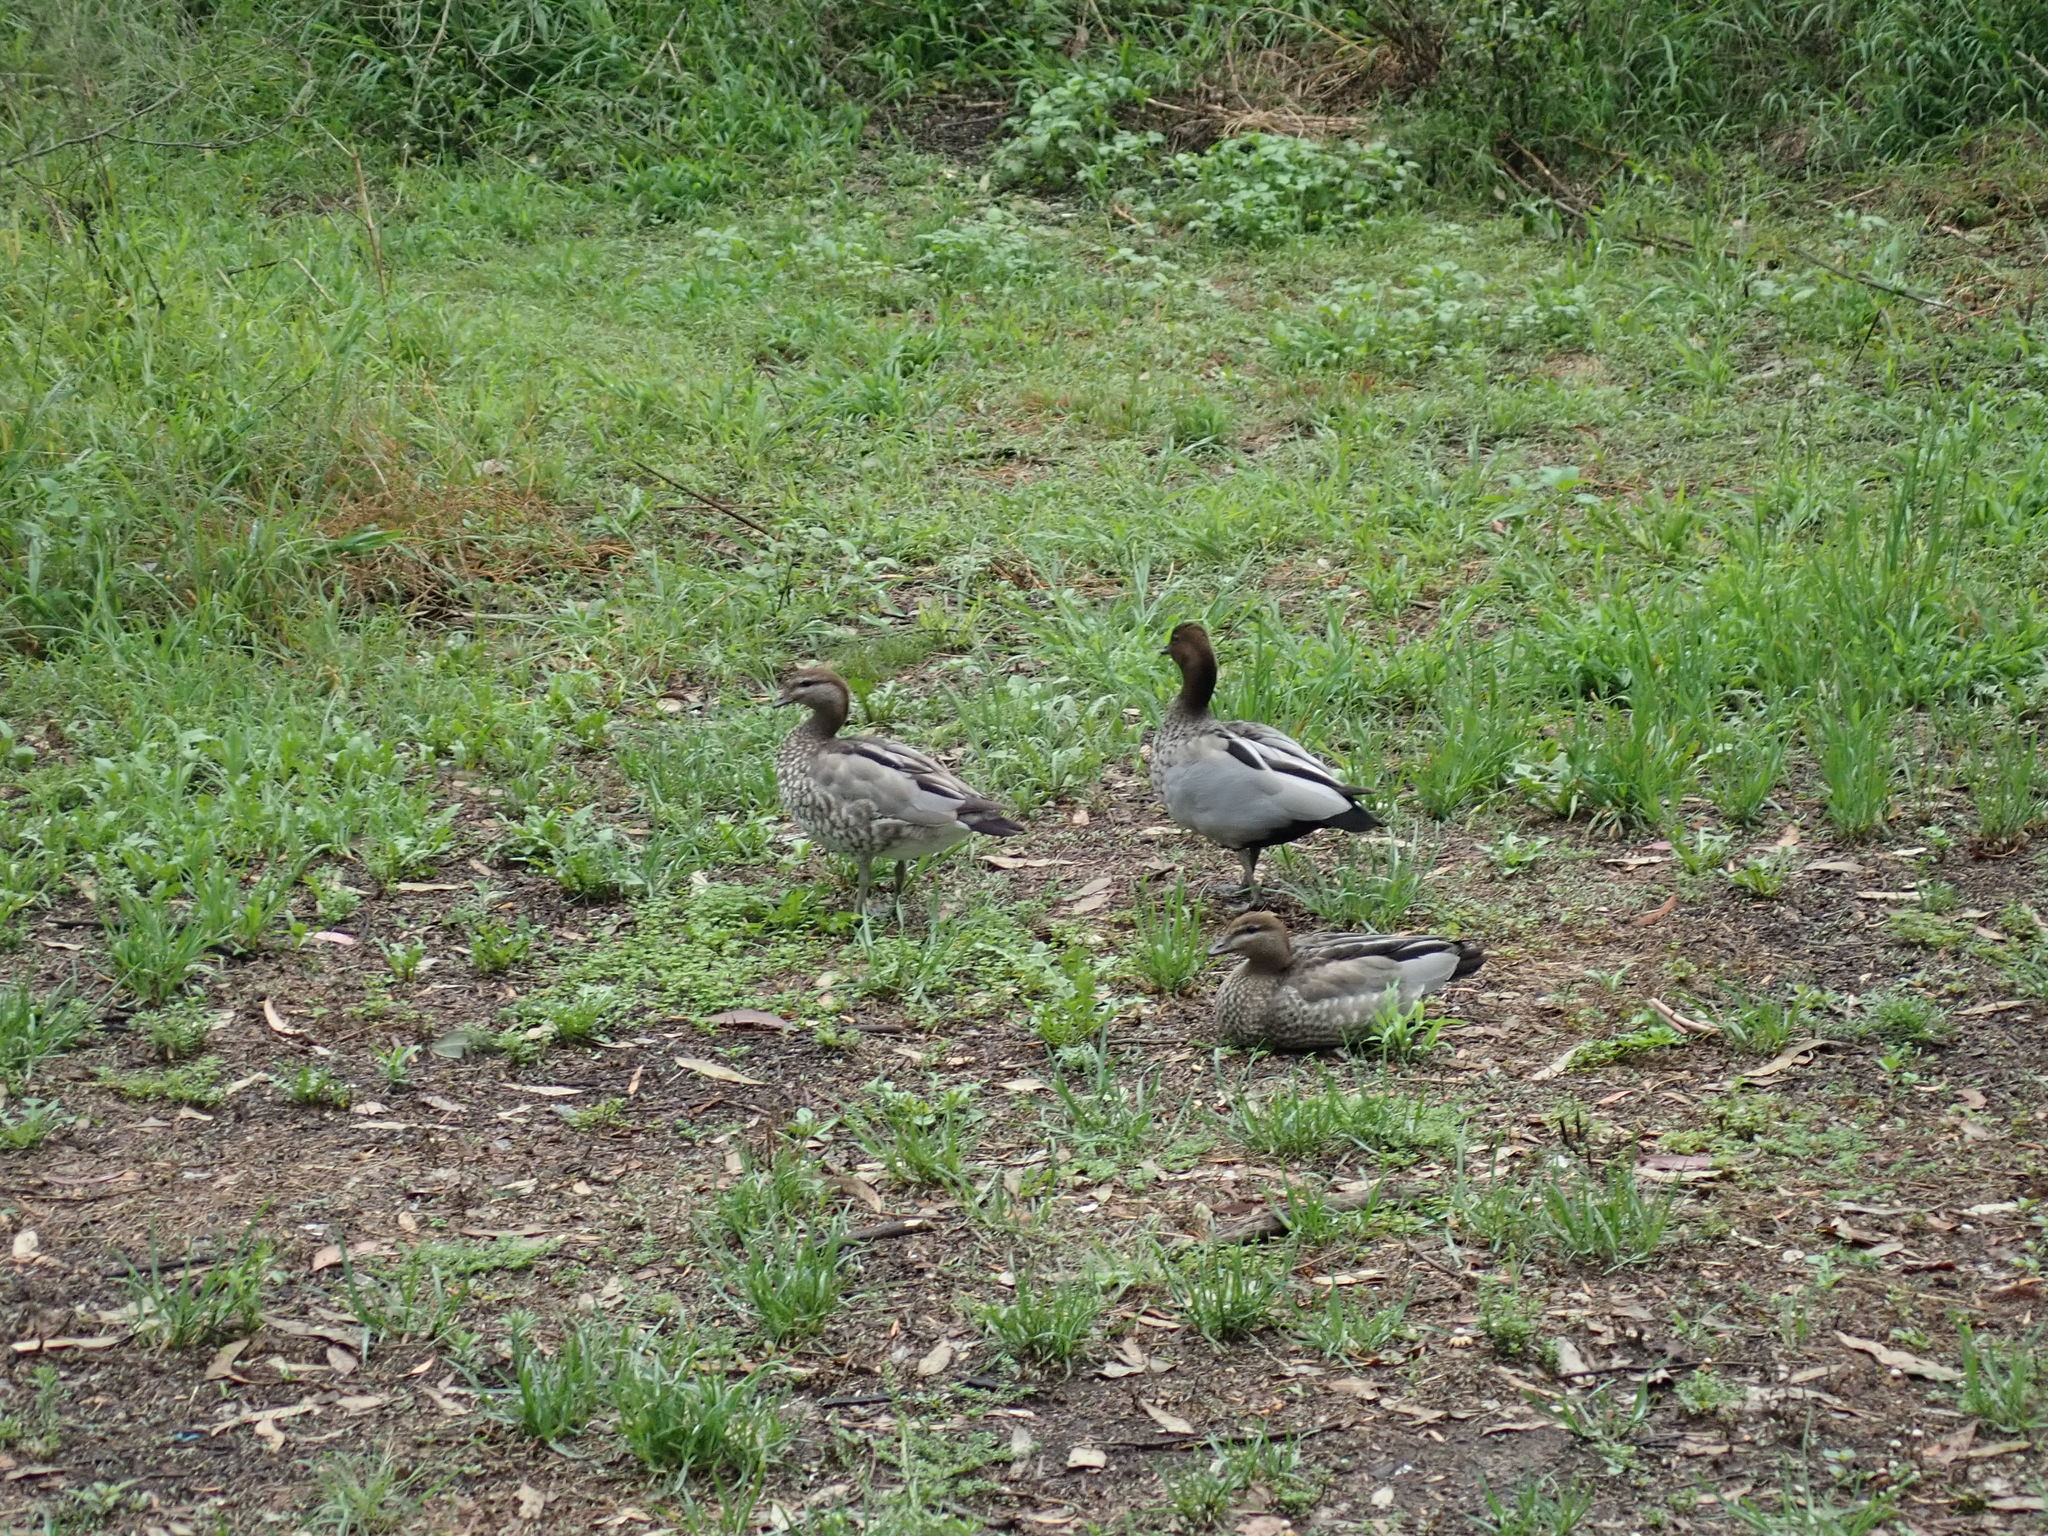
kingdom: Animalia
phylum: Chordata
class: Aves
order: Anseriformes
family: Anatidae
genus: Chenonetta
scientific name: Chenonetta jubata
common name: Maned duck
